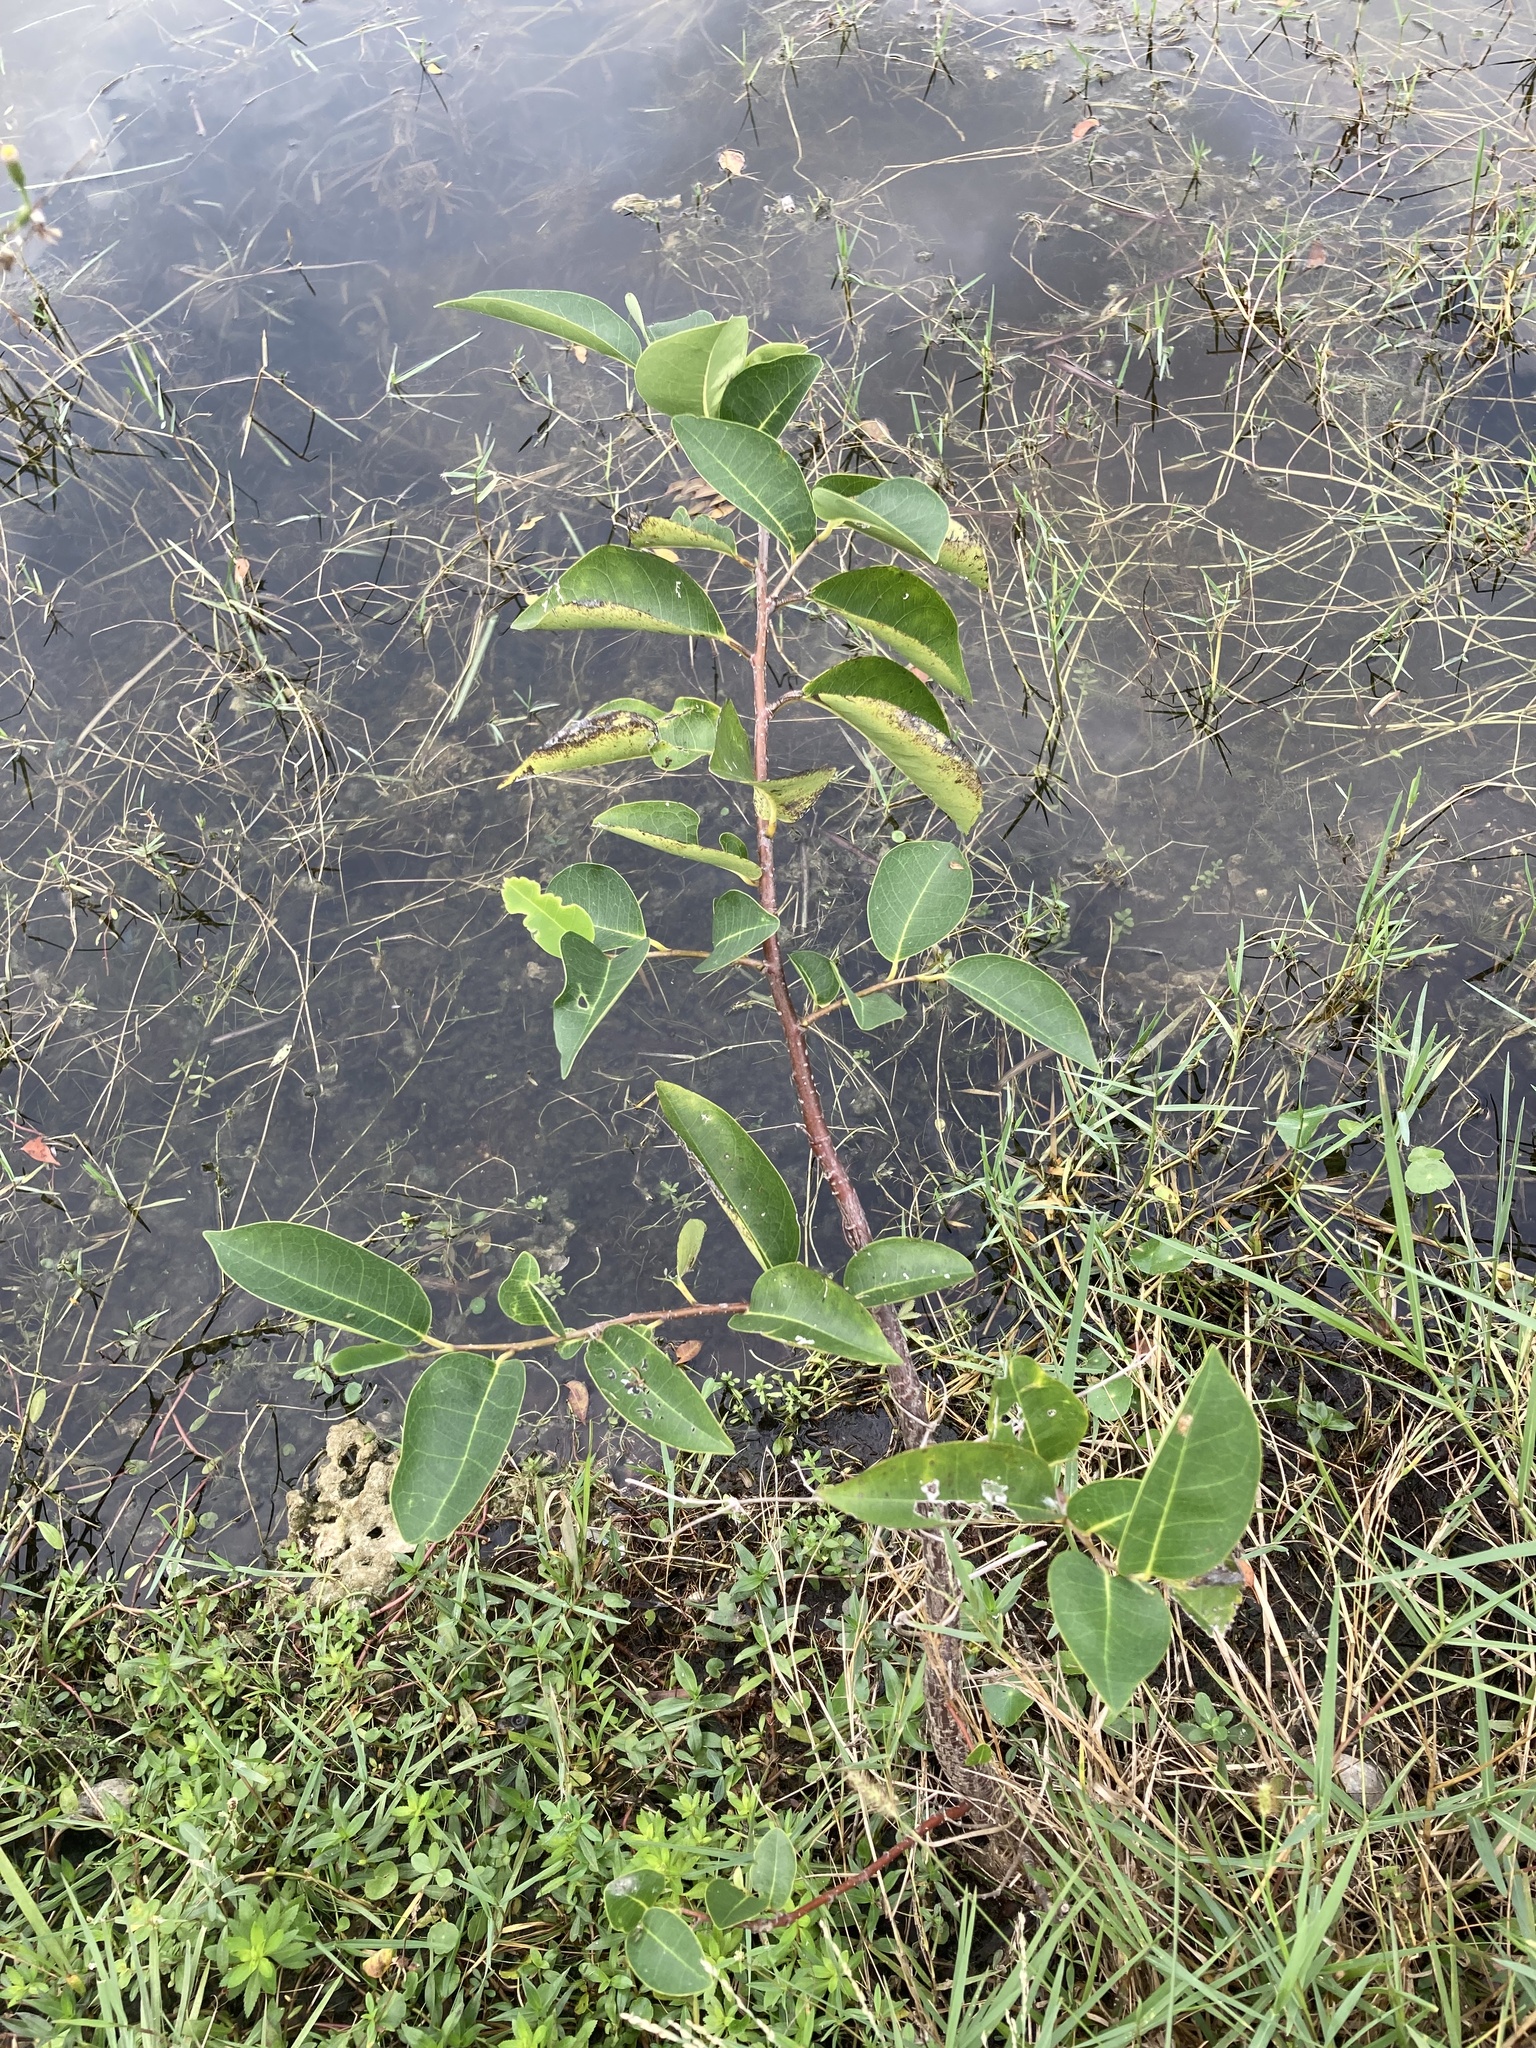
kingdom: Plantae
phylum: Tracheophyta
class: Magnoliopsida
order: Magnoliales
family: Annonaceae
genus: Annona
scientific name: Annona glabra
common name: Monkey apple
